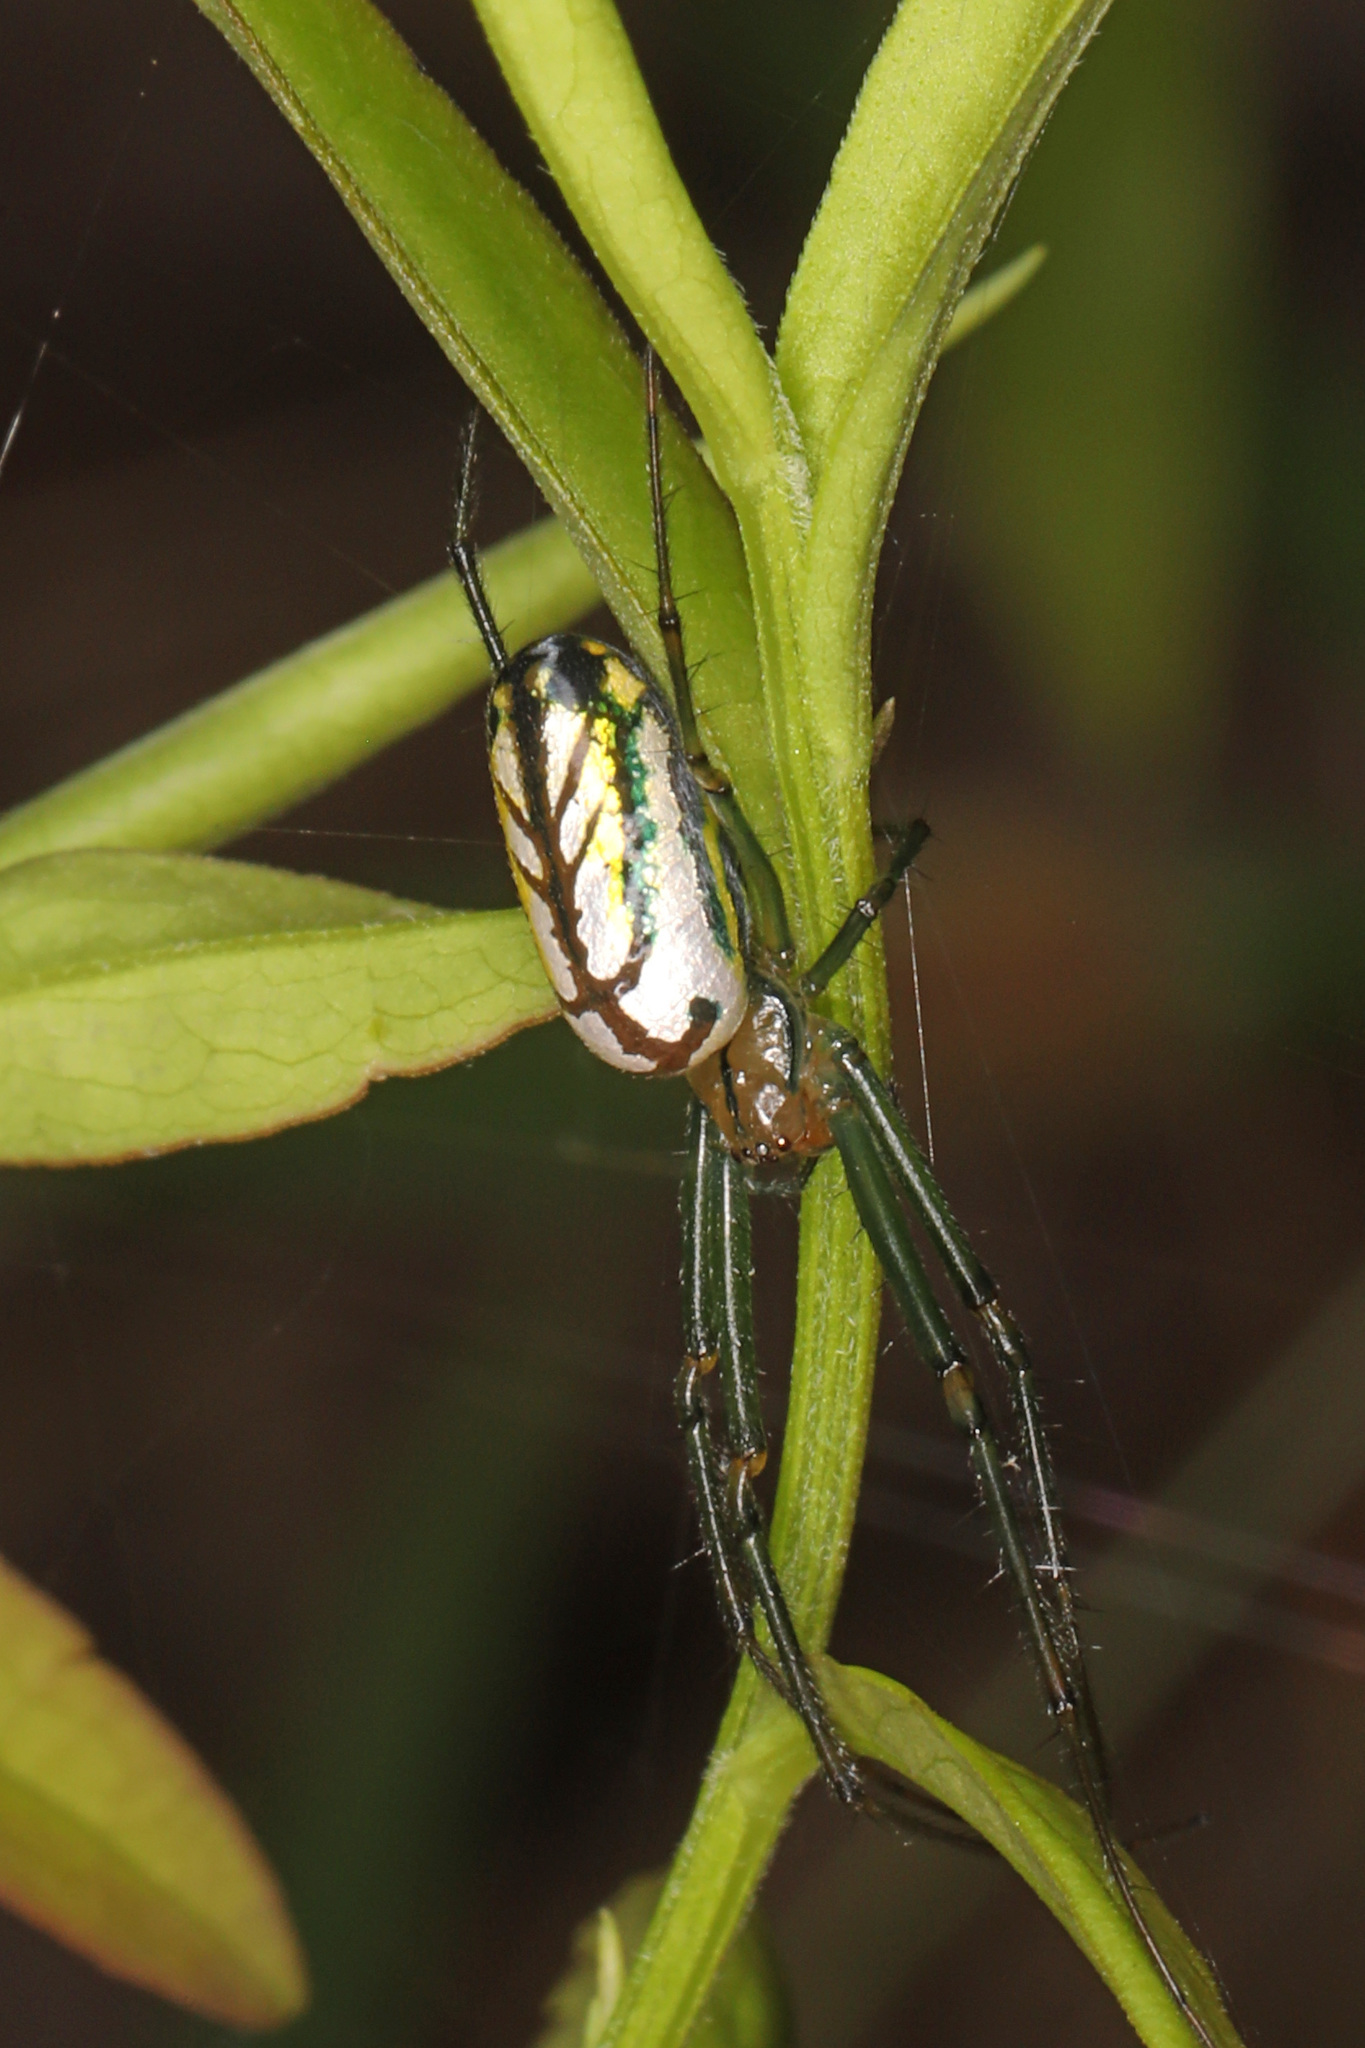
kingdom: Animalia
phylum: Arthropoda
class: Arachnida
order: Araneae
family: Tetragnathidae
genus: Leucauge
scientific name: Leucauge venusta
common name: Longjawed orb weavers
